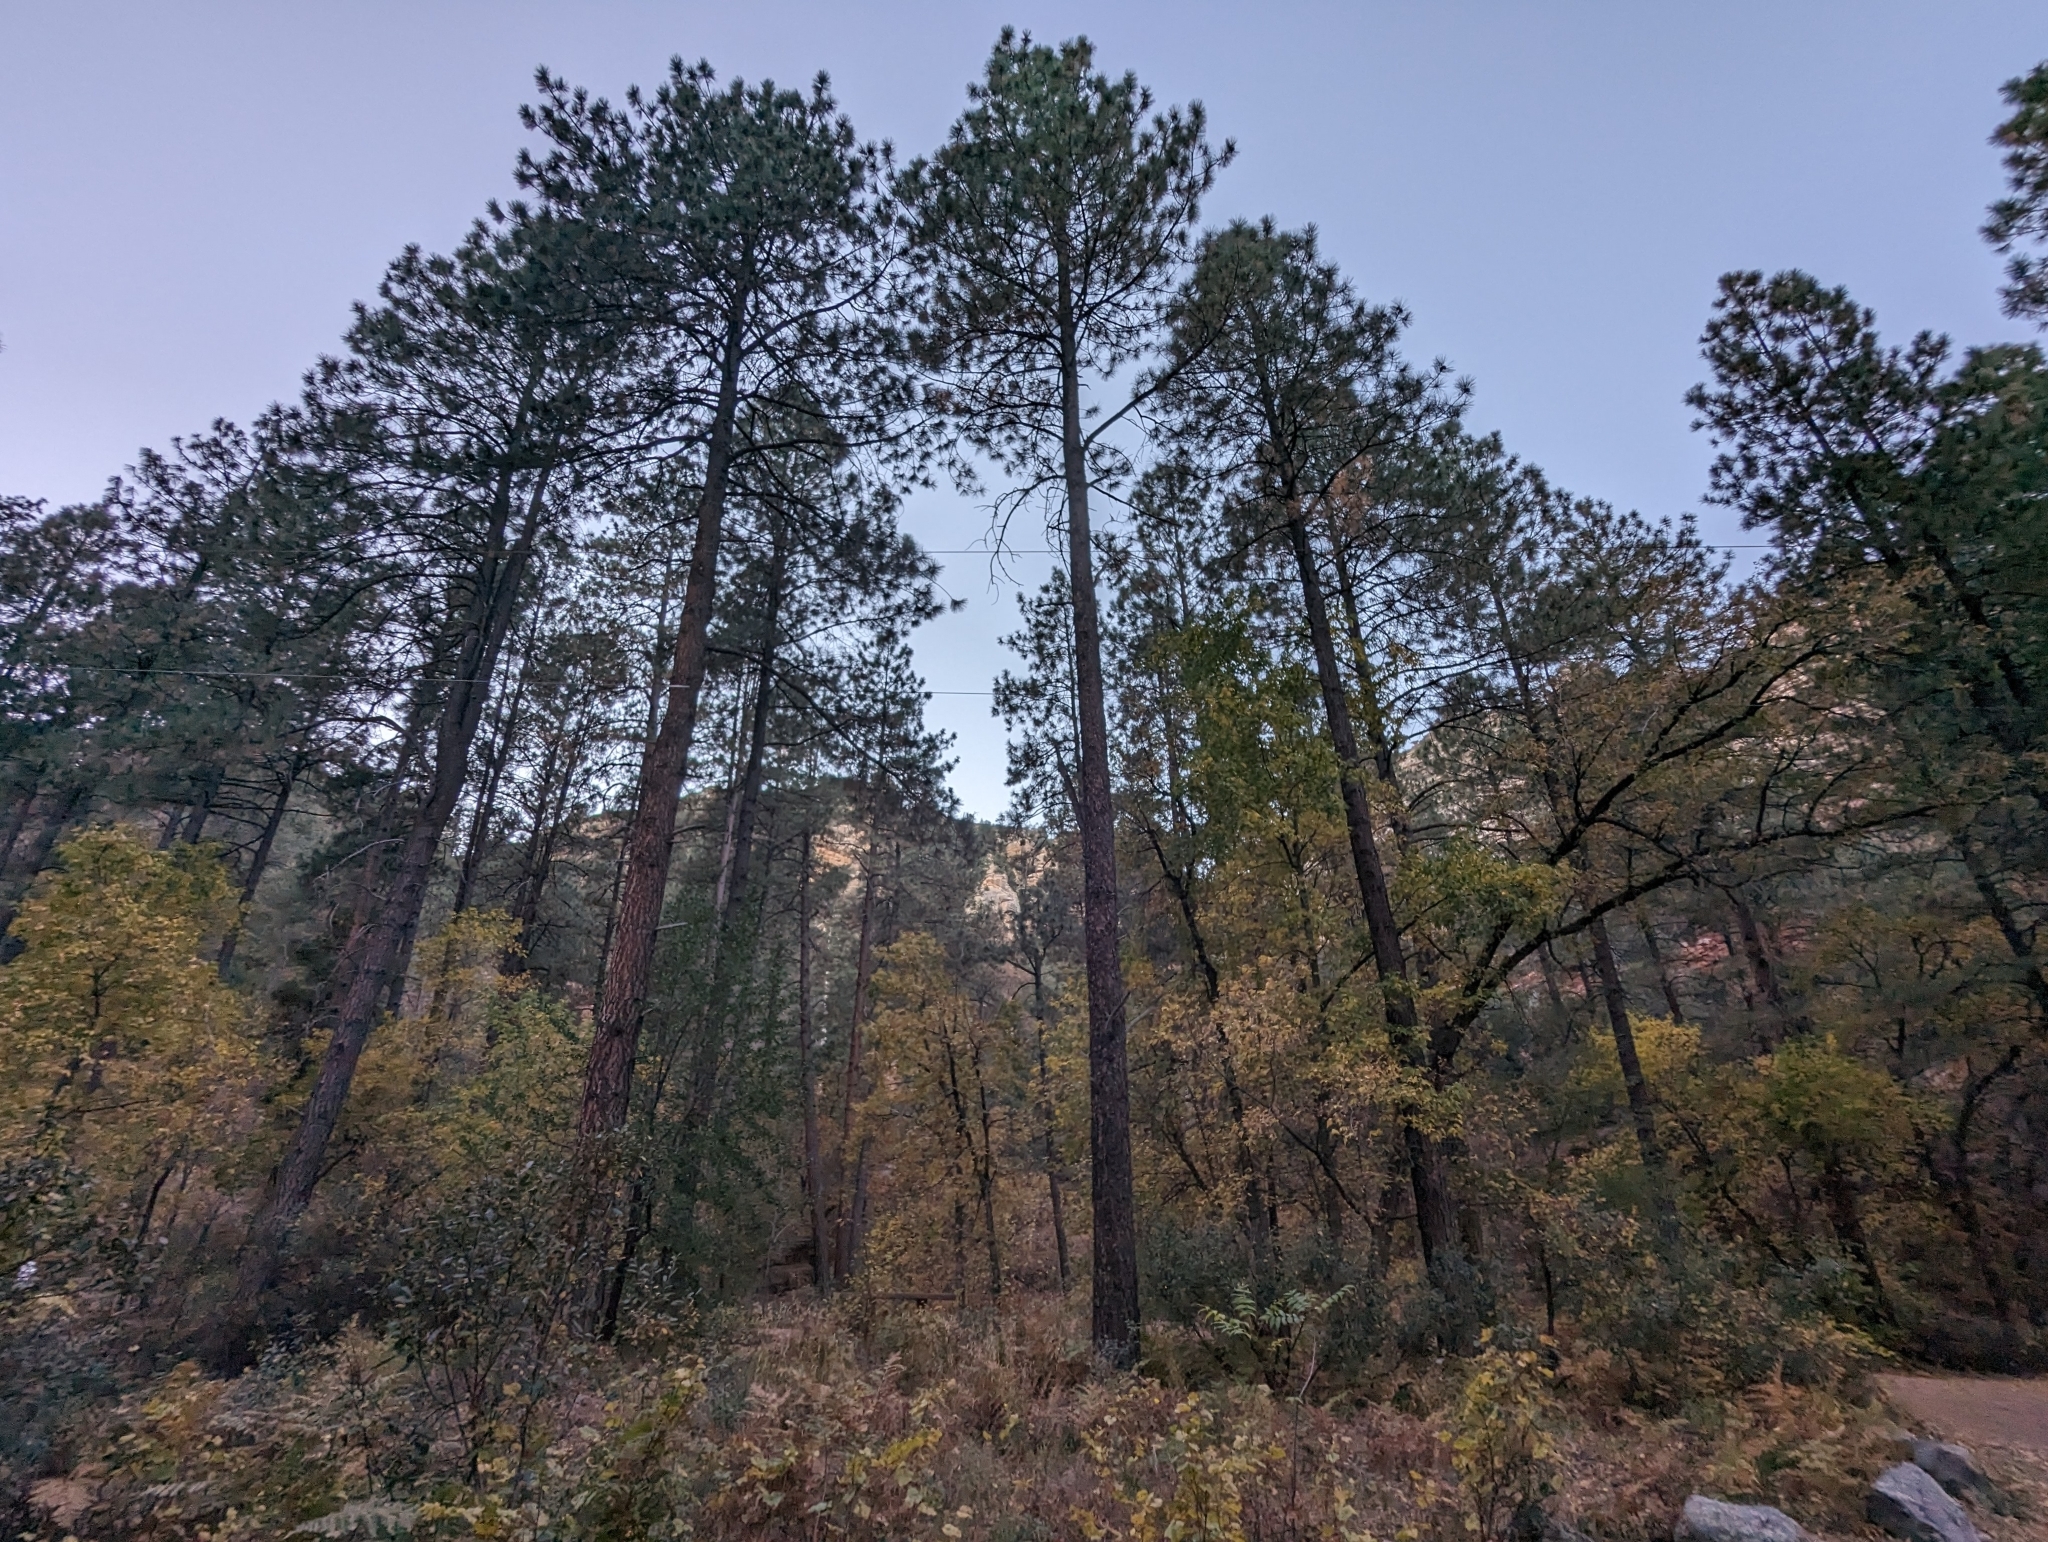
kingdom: Plantae
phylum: Tracheophyta
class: Pinopsida
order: Pinales
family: Pinaceae
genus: Pinus
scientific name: Pinus ponderosa
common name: Western yellow-pine
